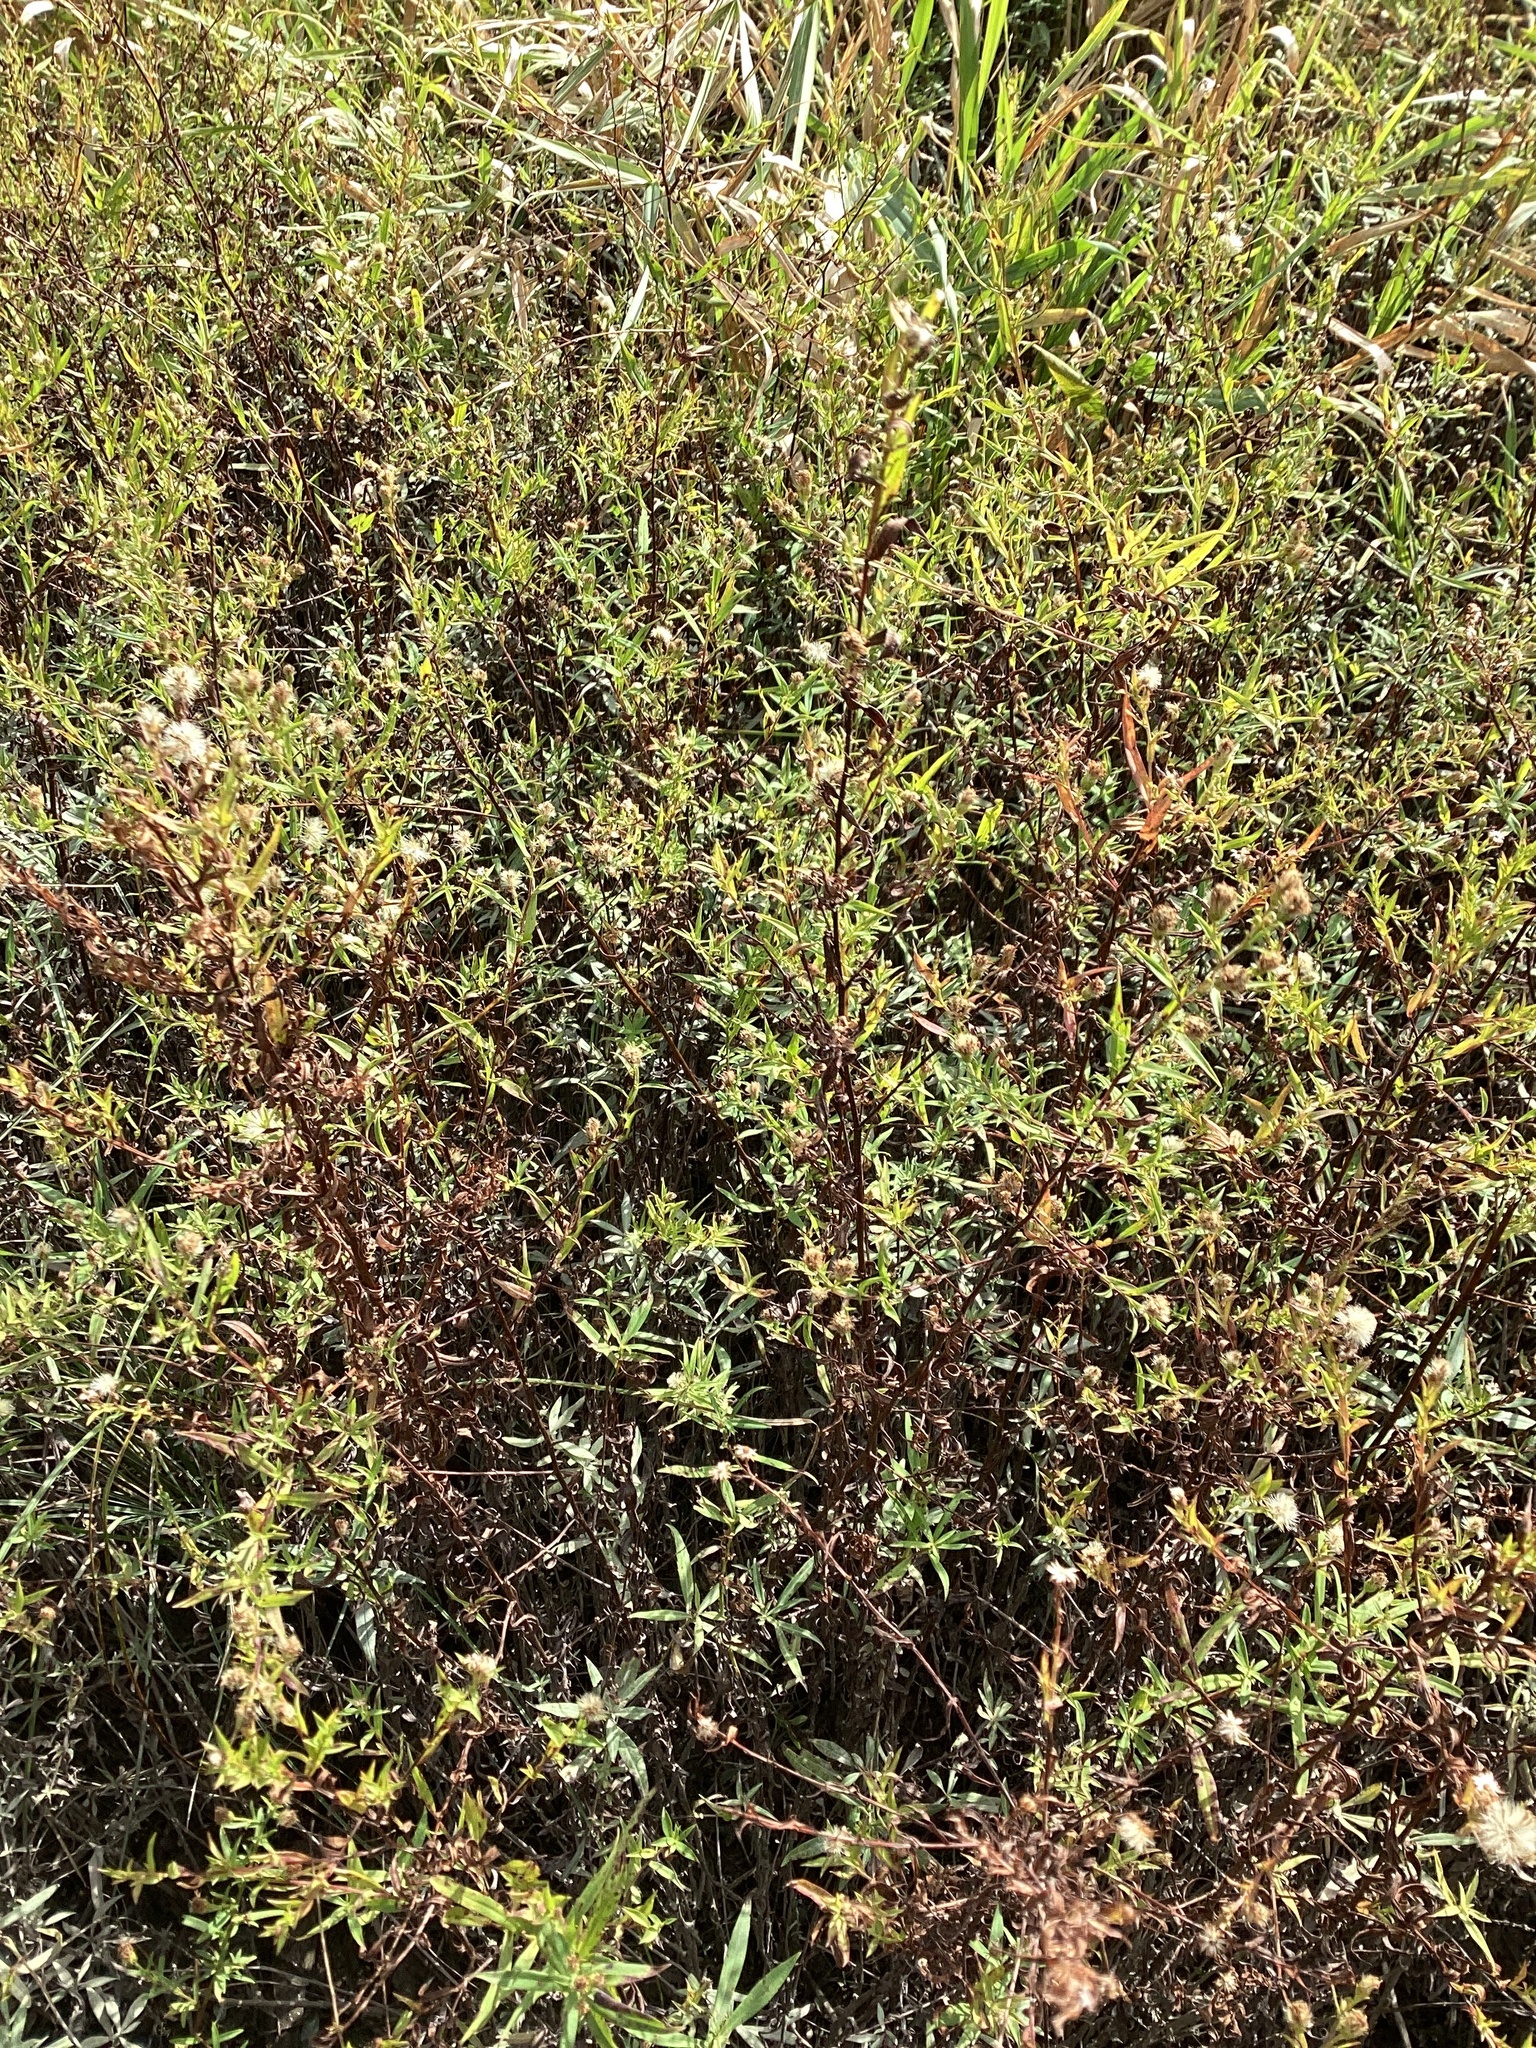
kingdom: Plantae
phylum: Tracheophyta
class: Magnoliopsida
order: Asterales
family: Asteraceae
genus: Symphyotrichum
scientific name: Symphyotrichum lanceolatum
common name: Panicled aster
